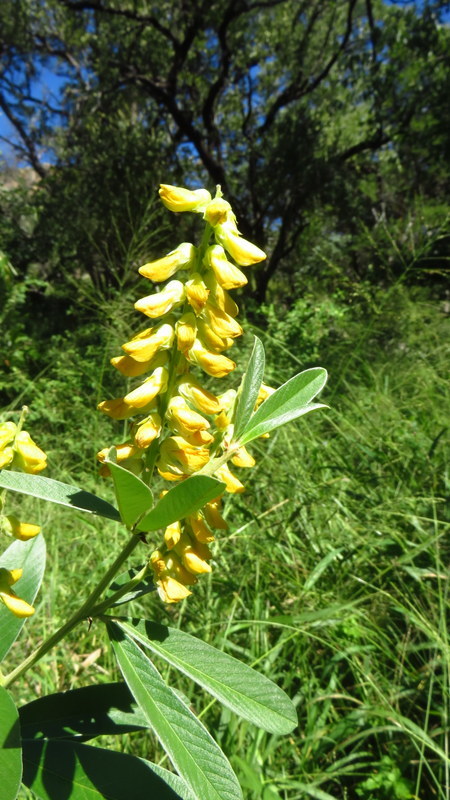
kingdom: Plantae
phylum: Tracheophyta
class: Magnoliopsida
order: Fabales
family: Fabaceae
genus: Eriosema
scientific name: Eriosema psoraleoides
